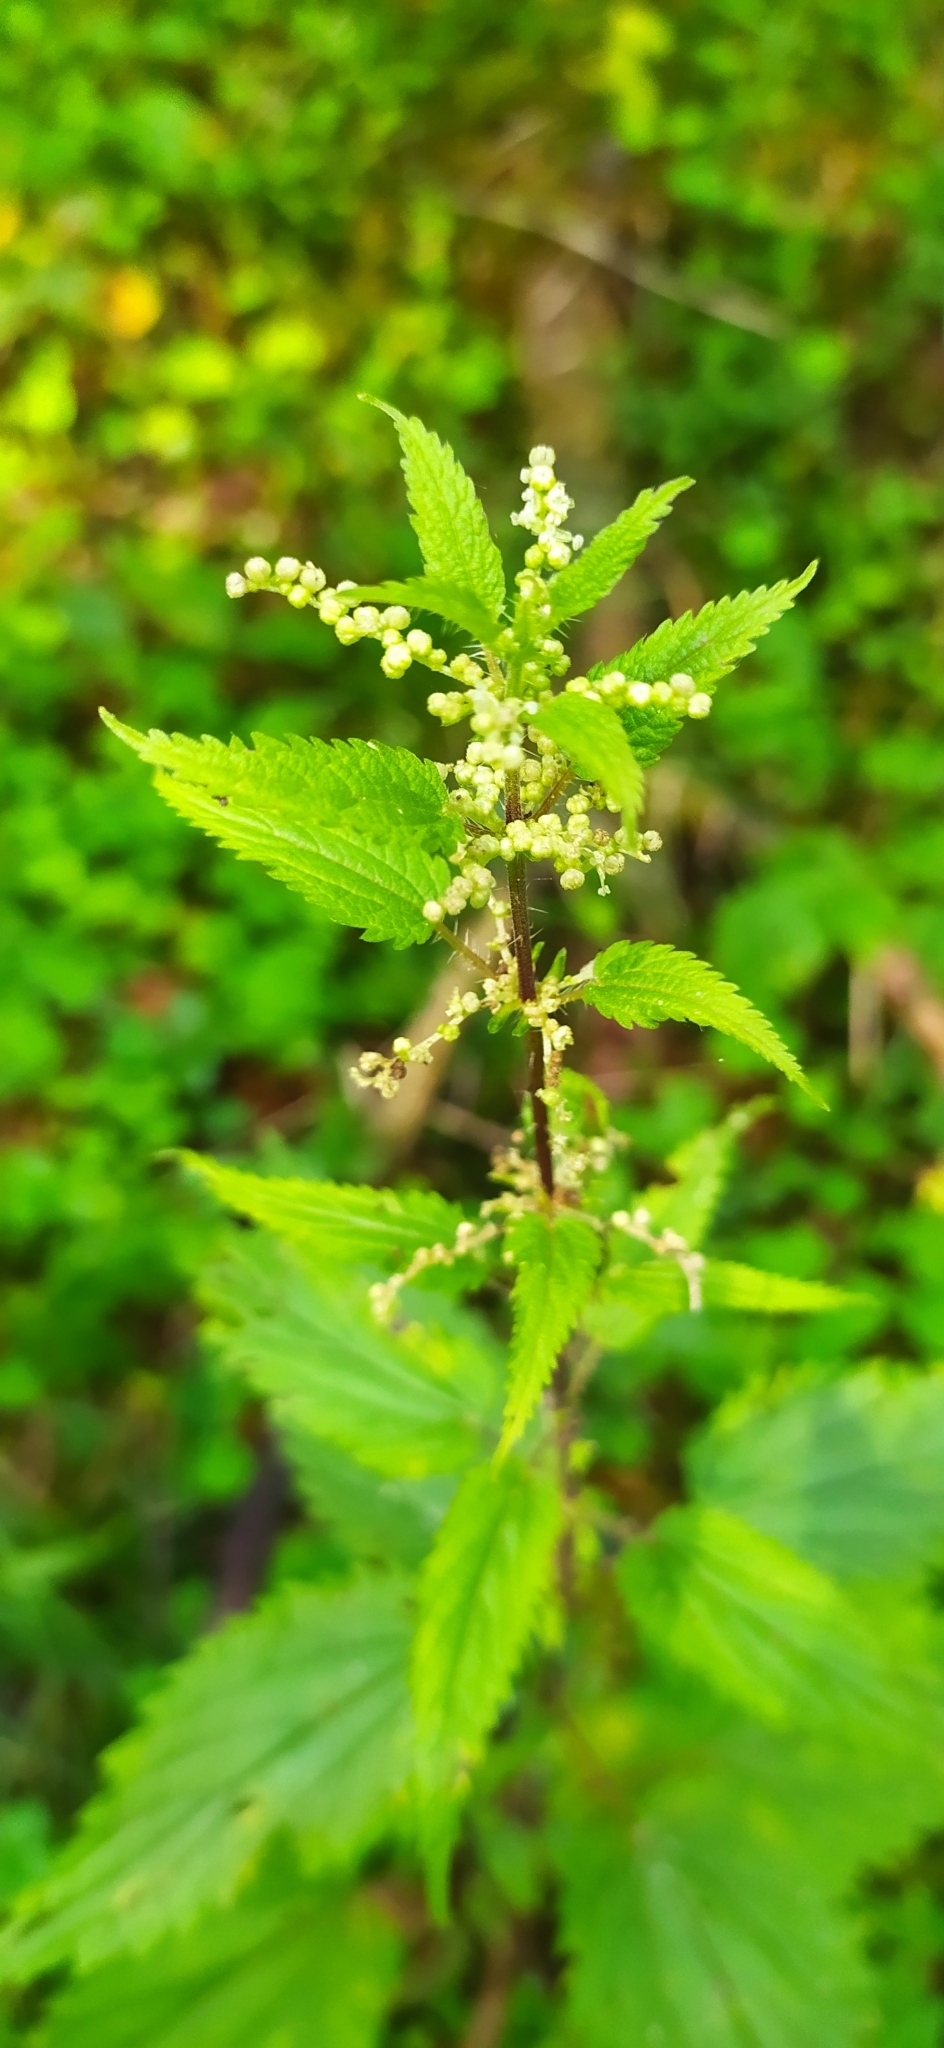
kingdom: Plantae
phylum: Tracheophyta
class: Magnoliopsida
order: Rosales
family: Urticaceae
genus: Urtica
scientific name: Urtica dioica
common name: Common nettle
